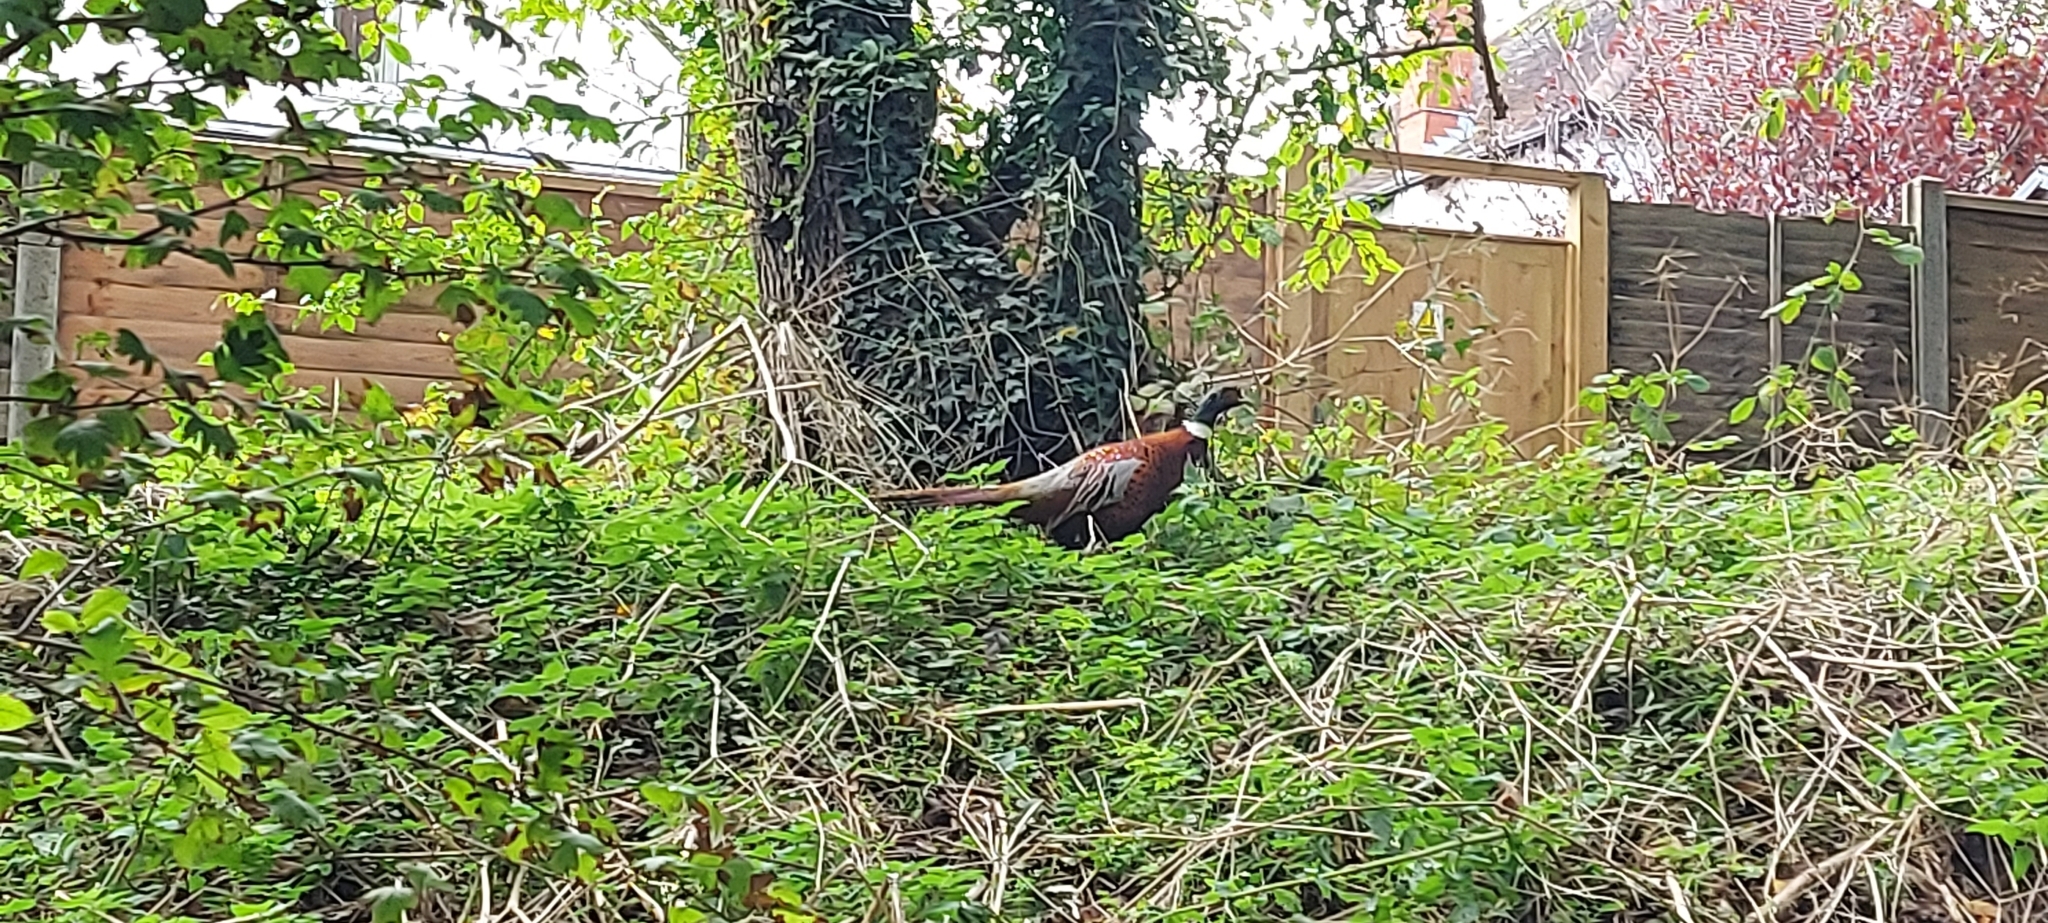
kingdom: Animalia
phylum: Chordata
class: Aves
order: Galliformes
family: Phasianidae
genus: Phasianus
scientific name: Phasianus colchicus
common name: Common pheasant
